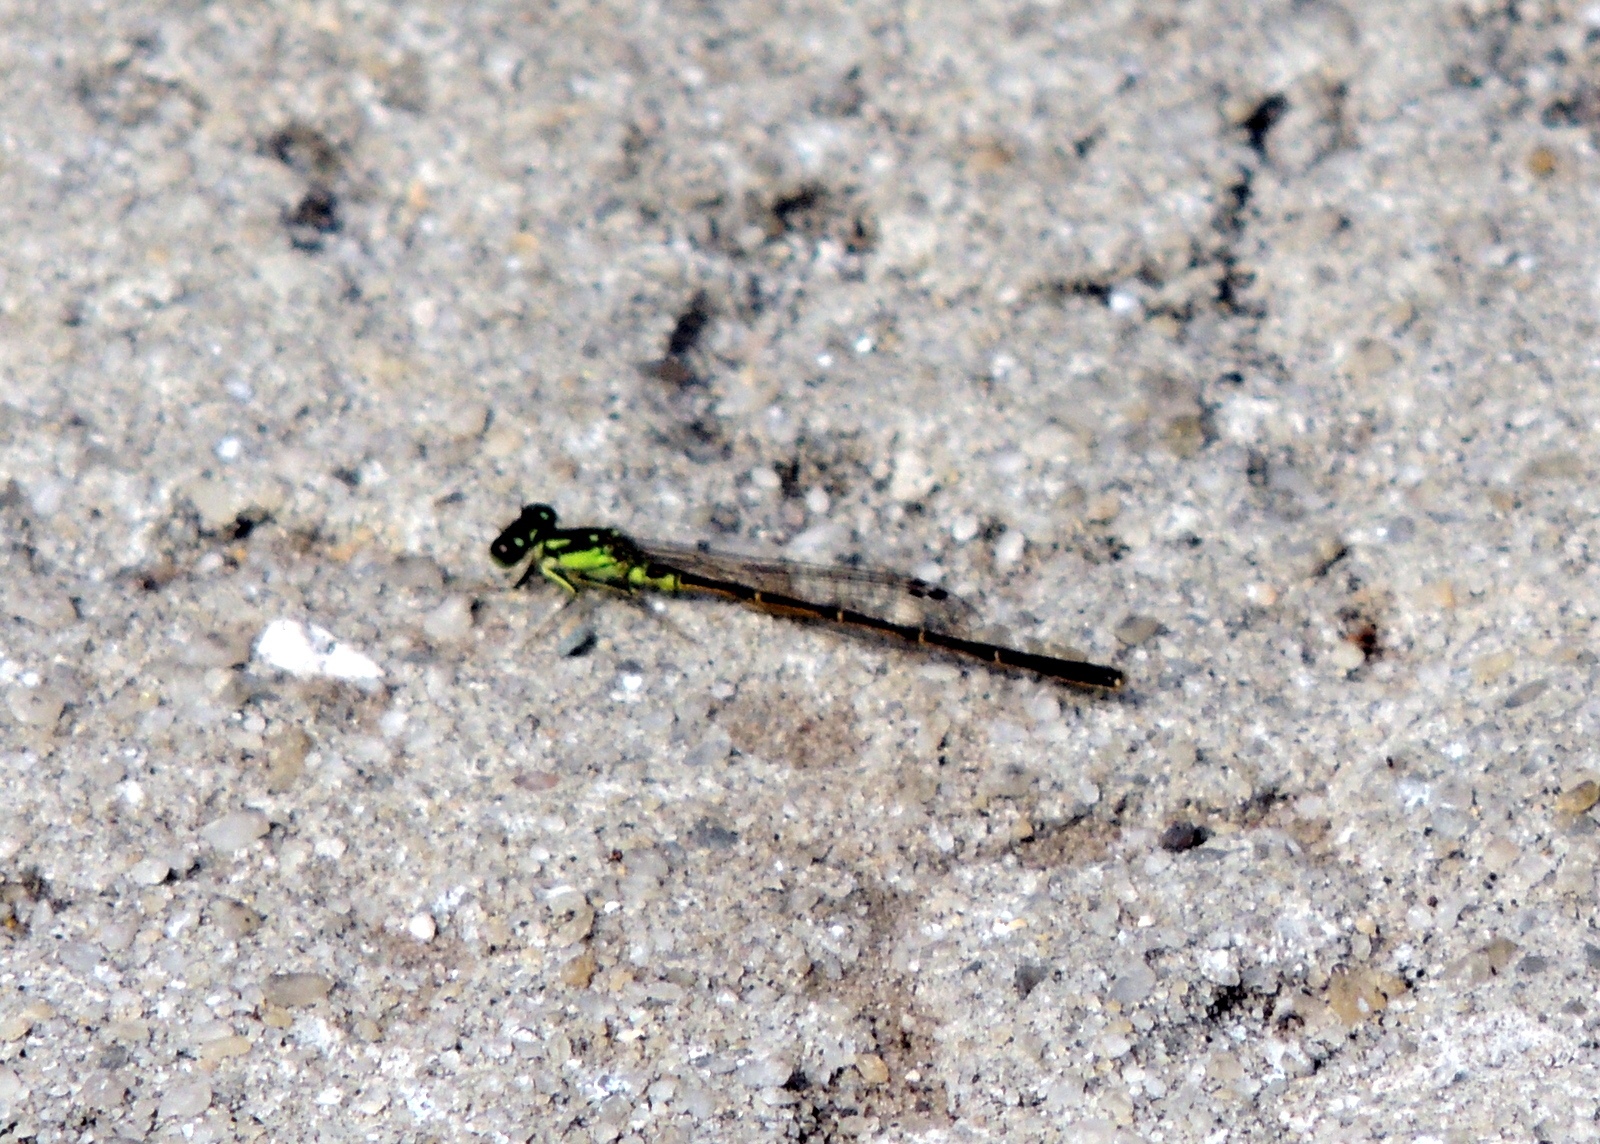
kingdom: Animalia
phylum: Arthropoda
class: Insecta
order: Odonata
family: Coenagrionidae
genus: Ischnura
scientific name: Ischnura posita
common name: Fragile forktail
